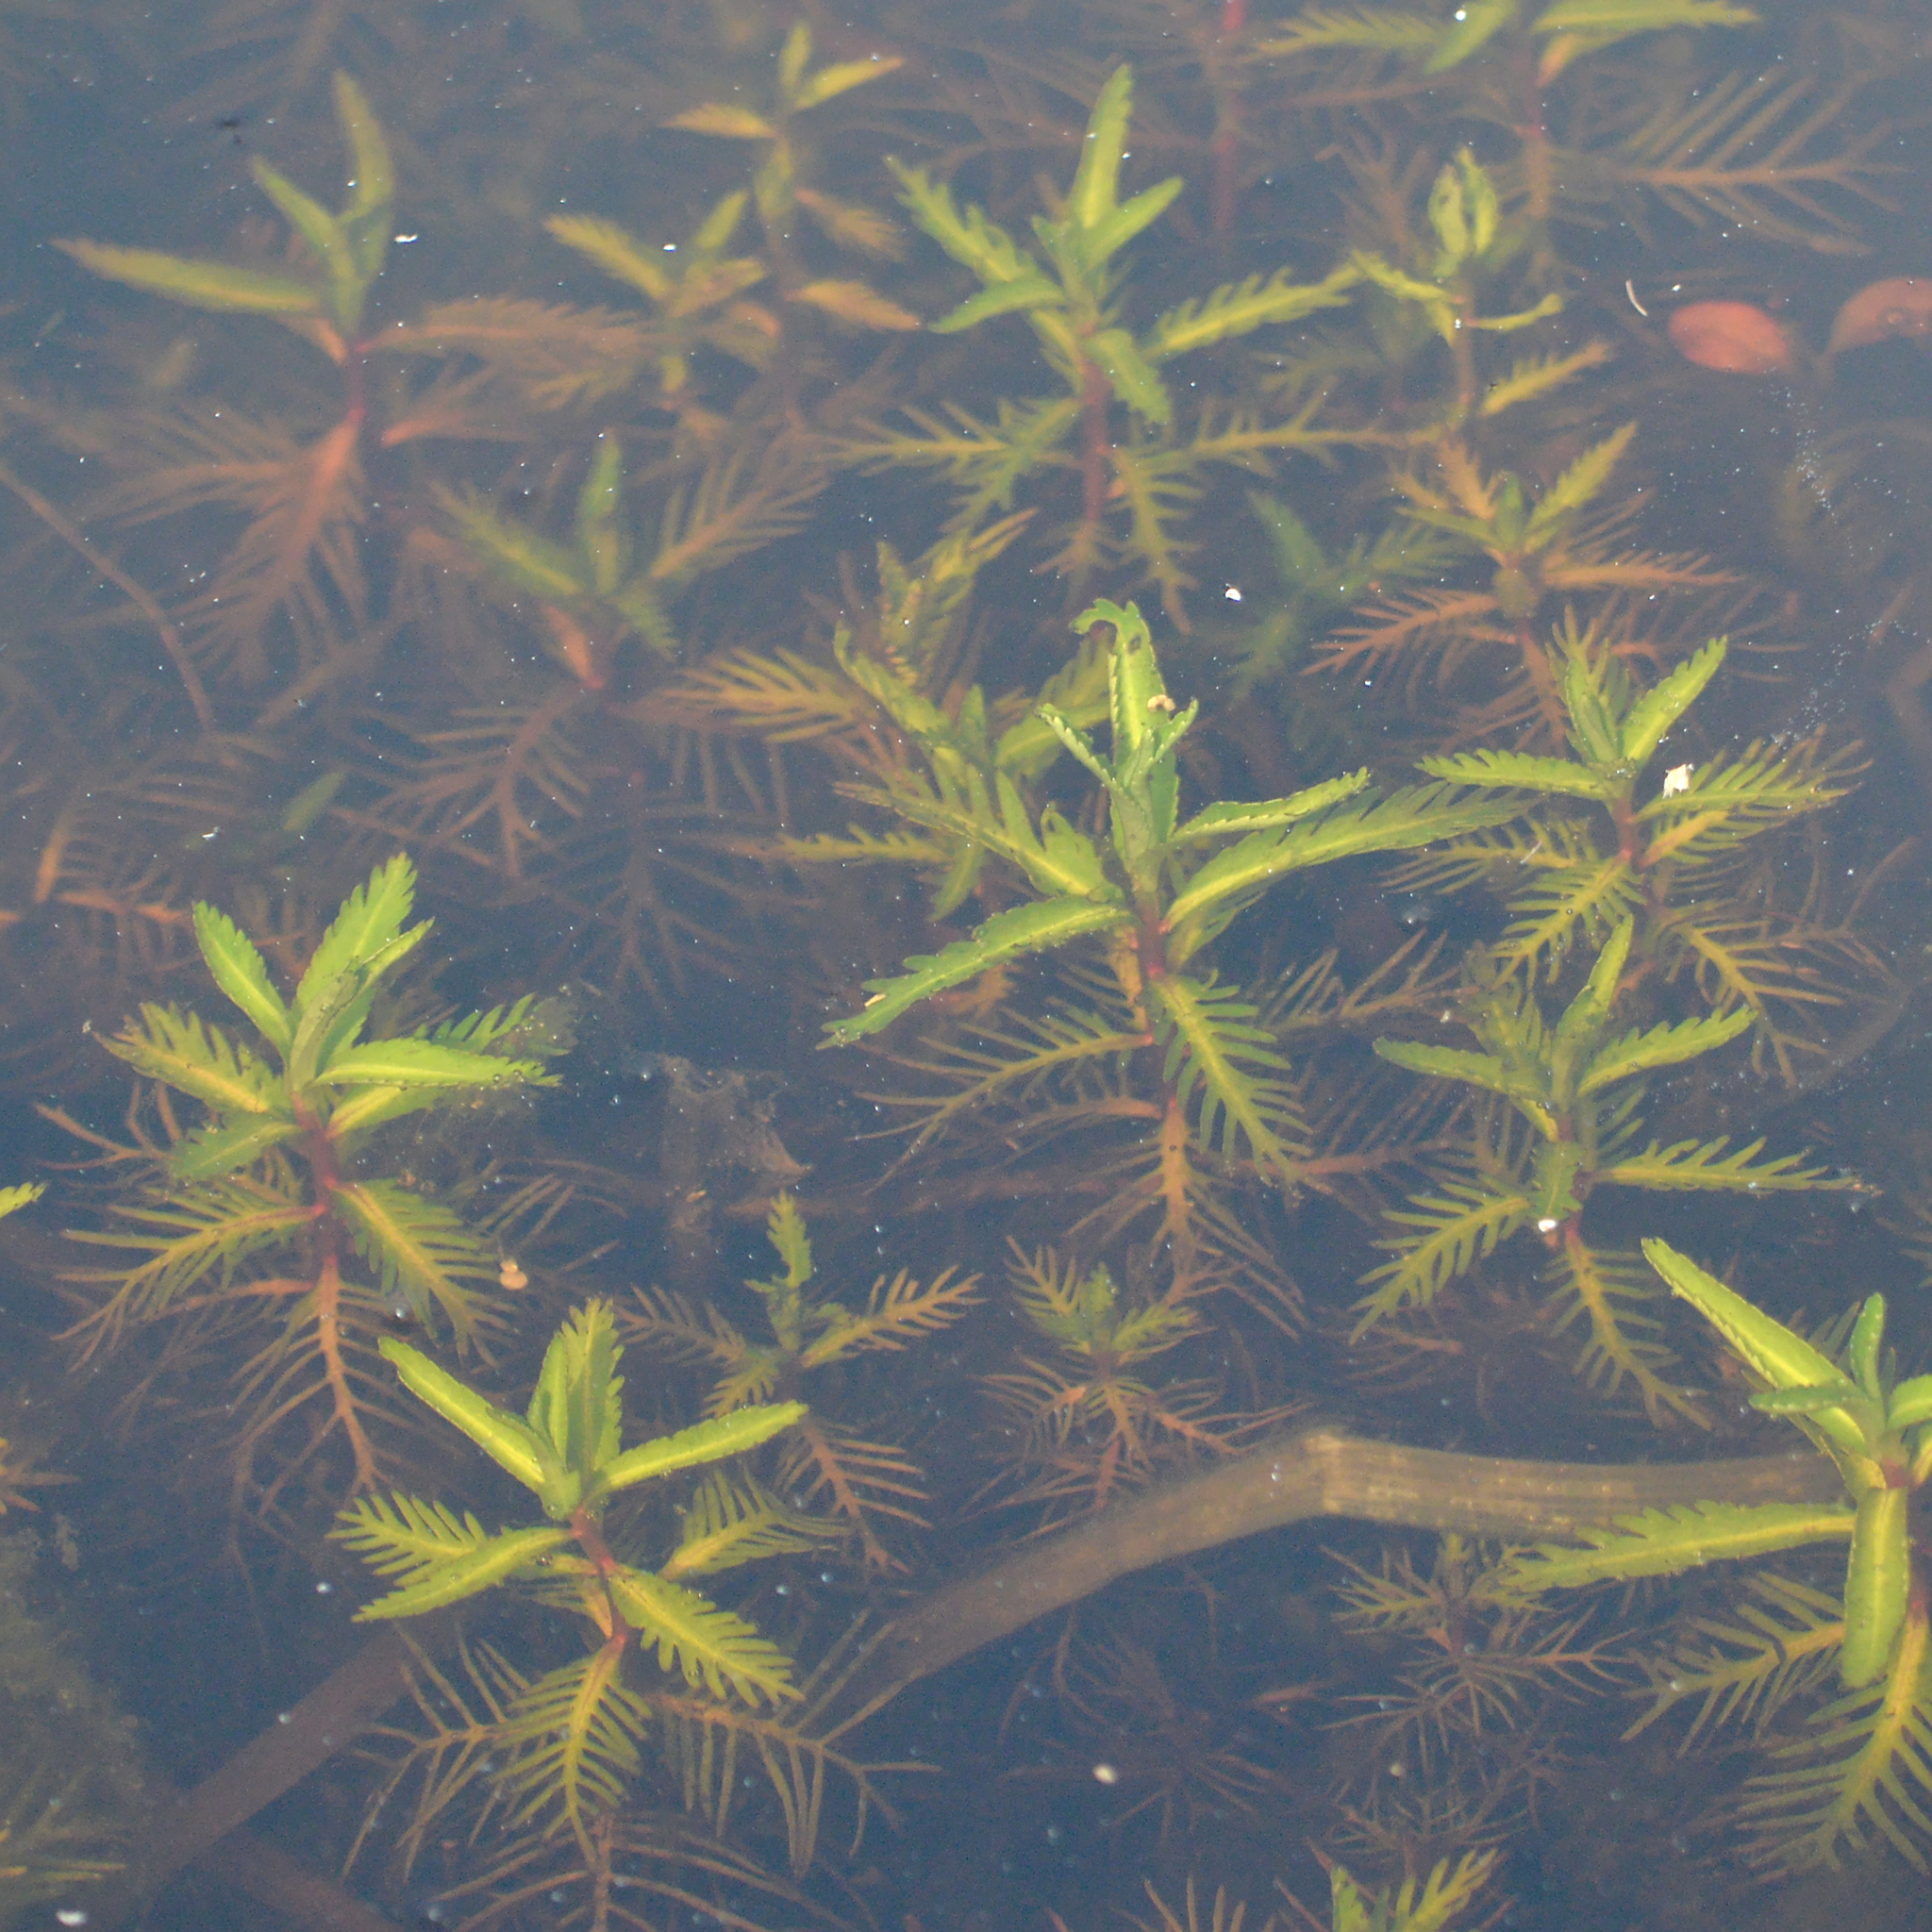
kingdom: Plantae
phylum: Tracheophyta
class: Magnoliopsida
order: Saxifragales
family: Haloragaceae
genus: Proserpinaca
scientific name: Proserpinaca palustris
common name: Marsh mermaidweed
